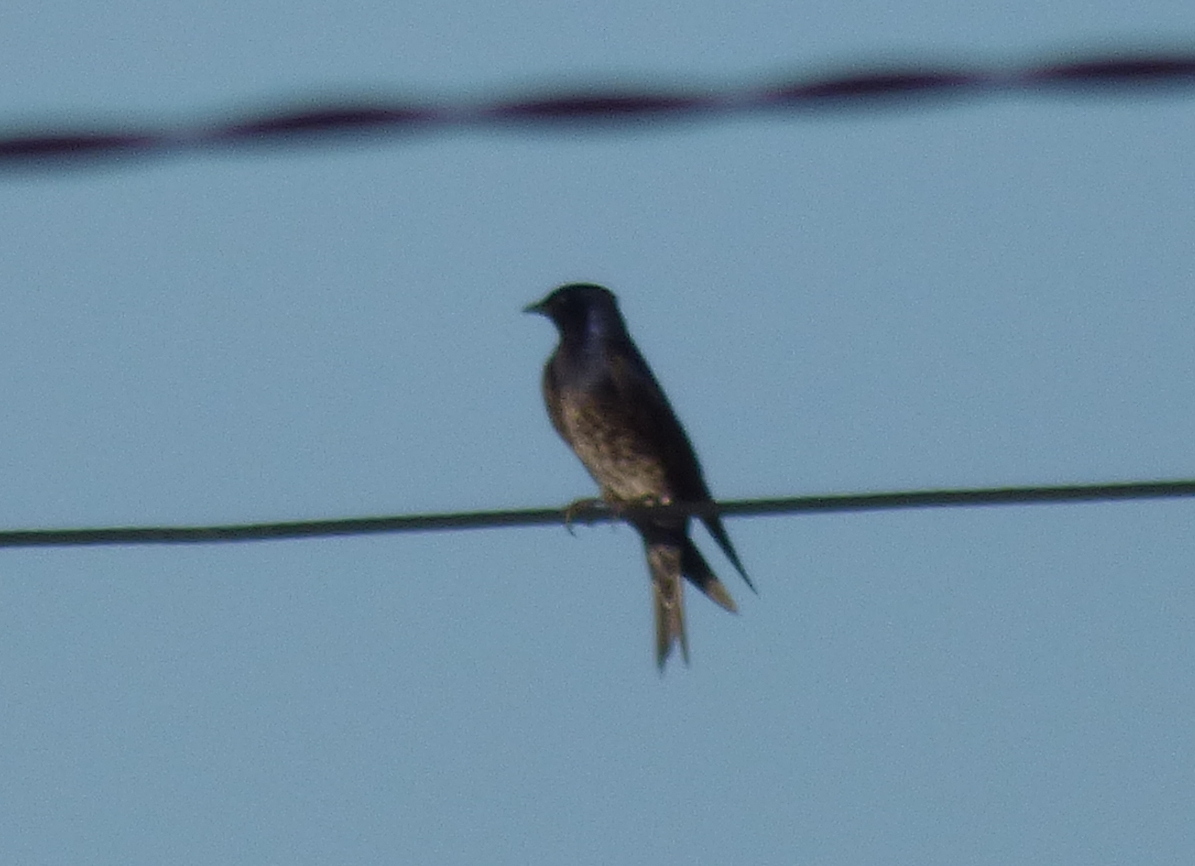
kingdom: Animalia
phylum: Chordata
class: Aves
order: Passeriformes
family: Hirundinidae
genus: Progne
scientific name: Progne elegans
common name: Southern martin
